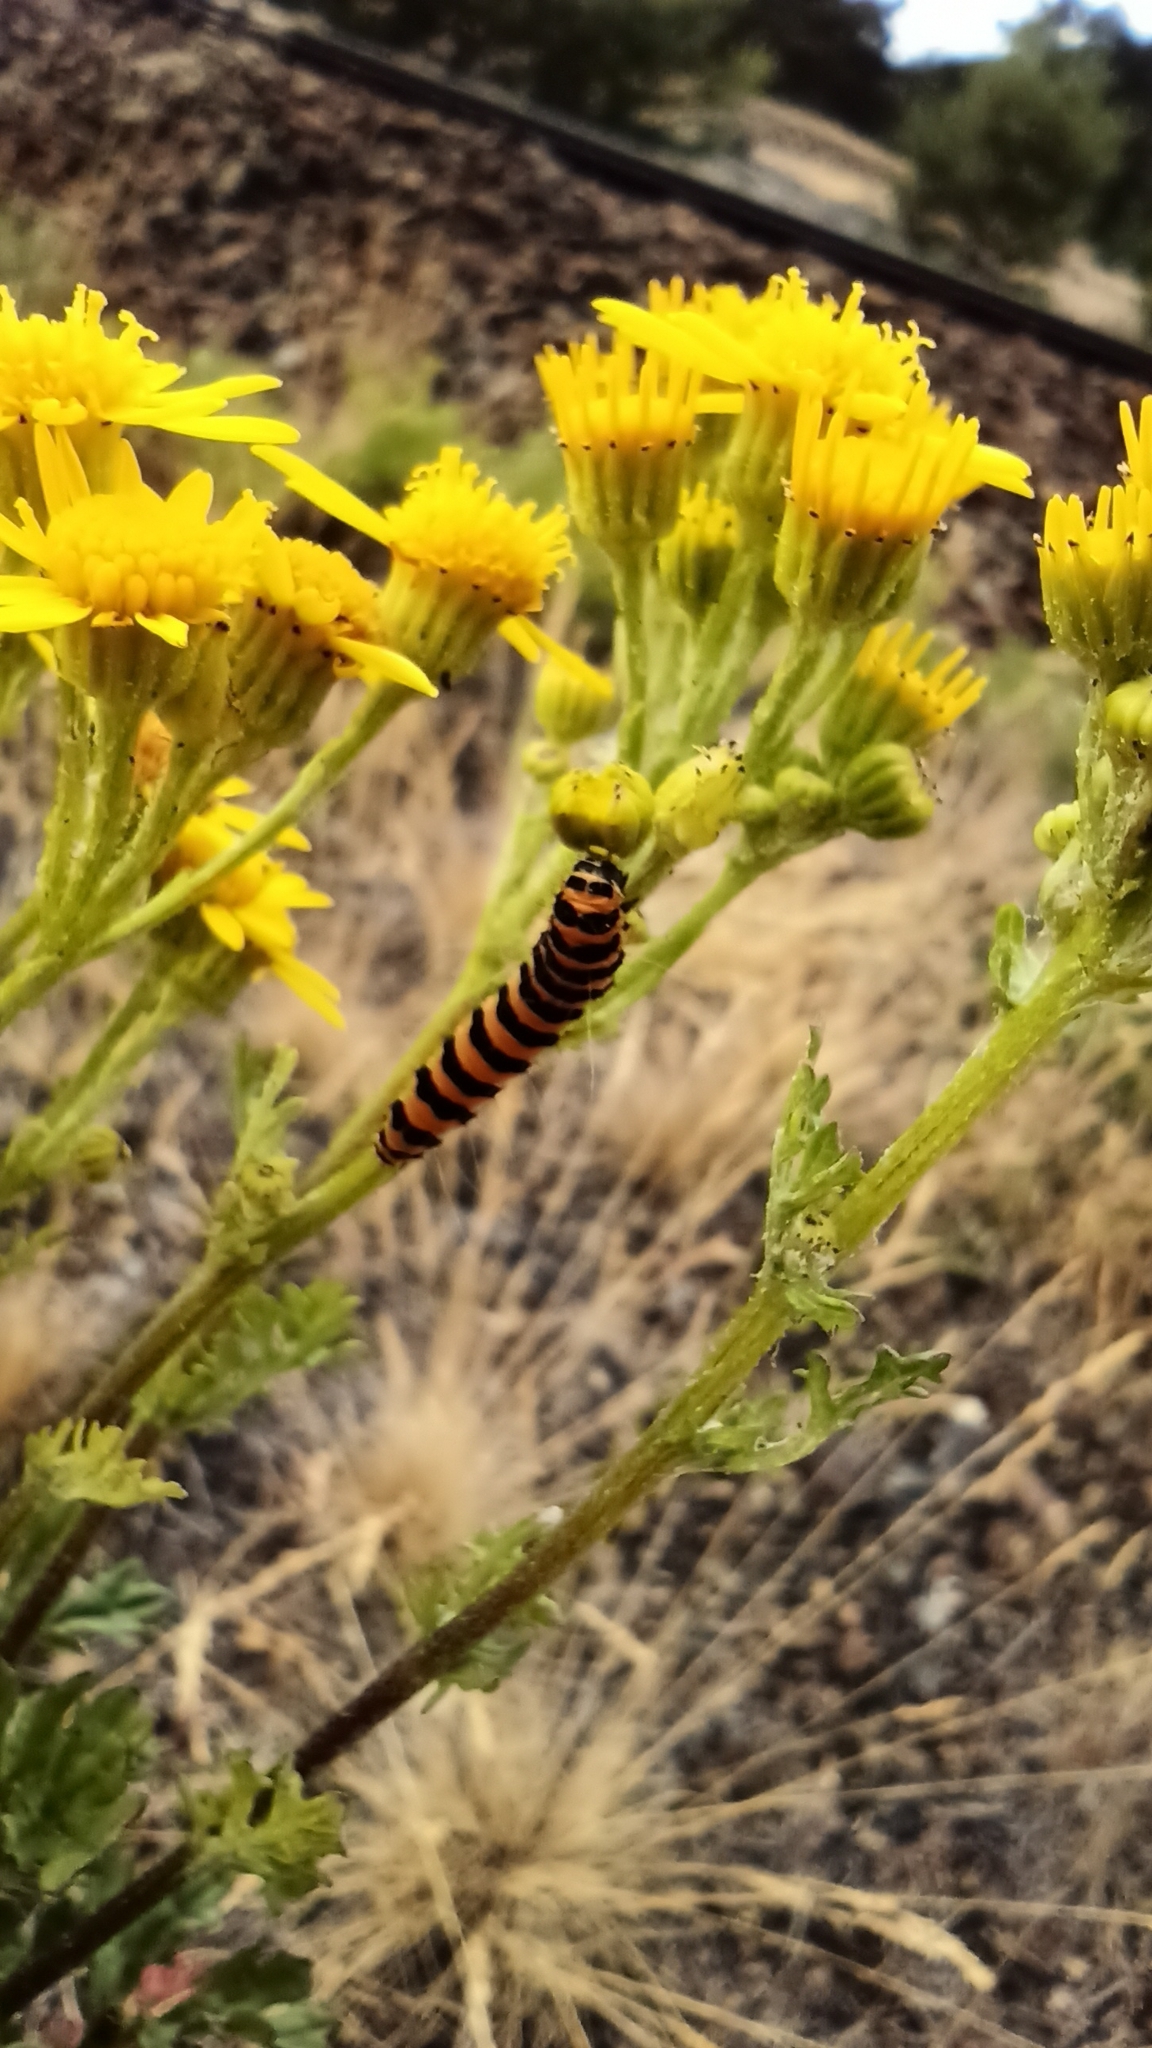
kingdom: Animalia
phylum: Arthropoda
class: Insecta
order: Lepidoptera
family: Erebidae
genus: Tyria
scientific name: Tyria jacobaeae
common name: Cinnabar
